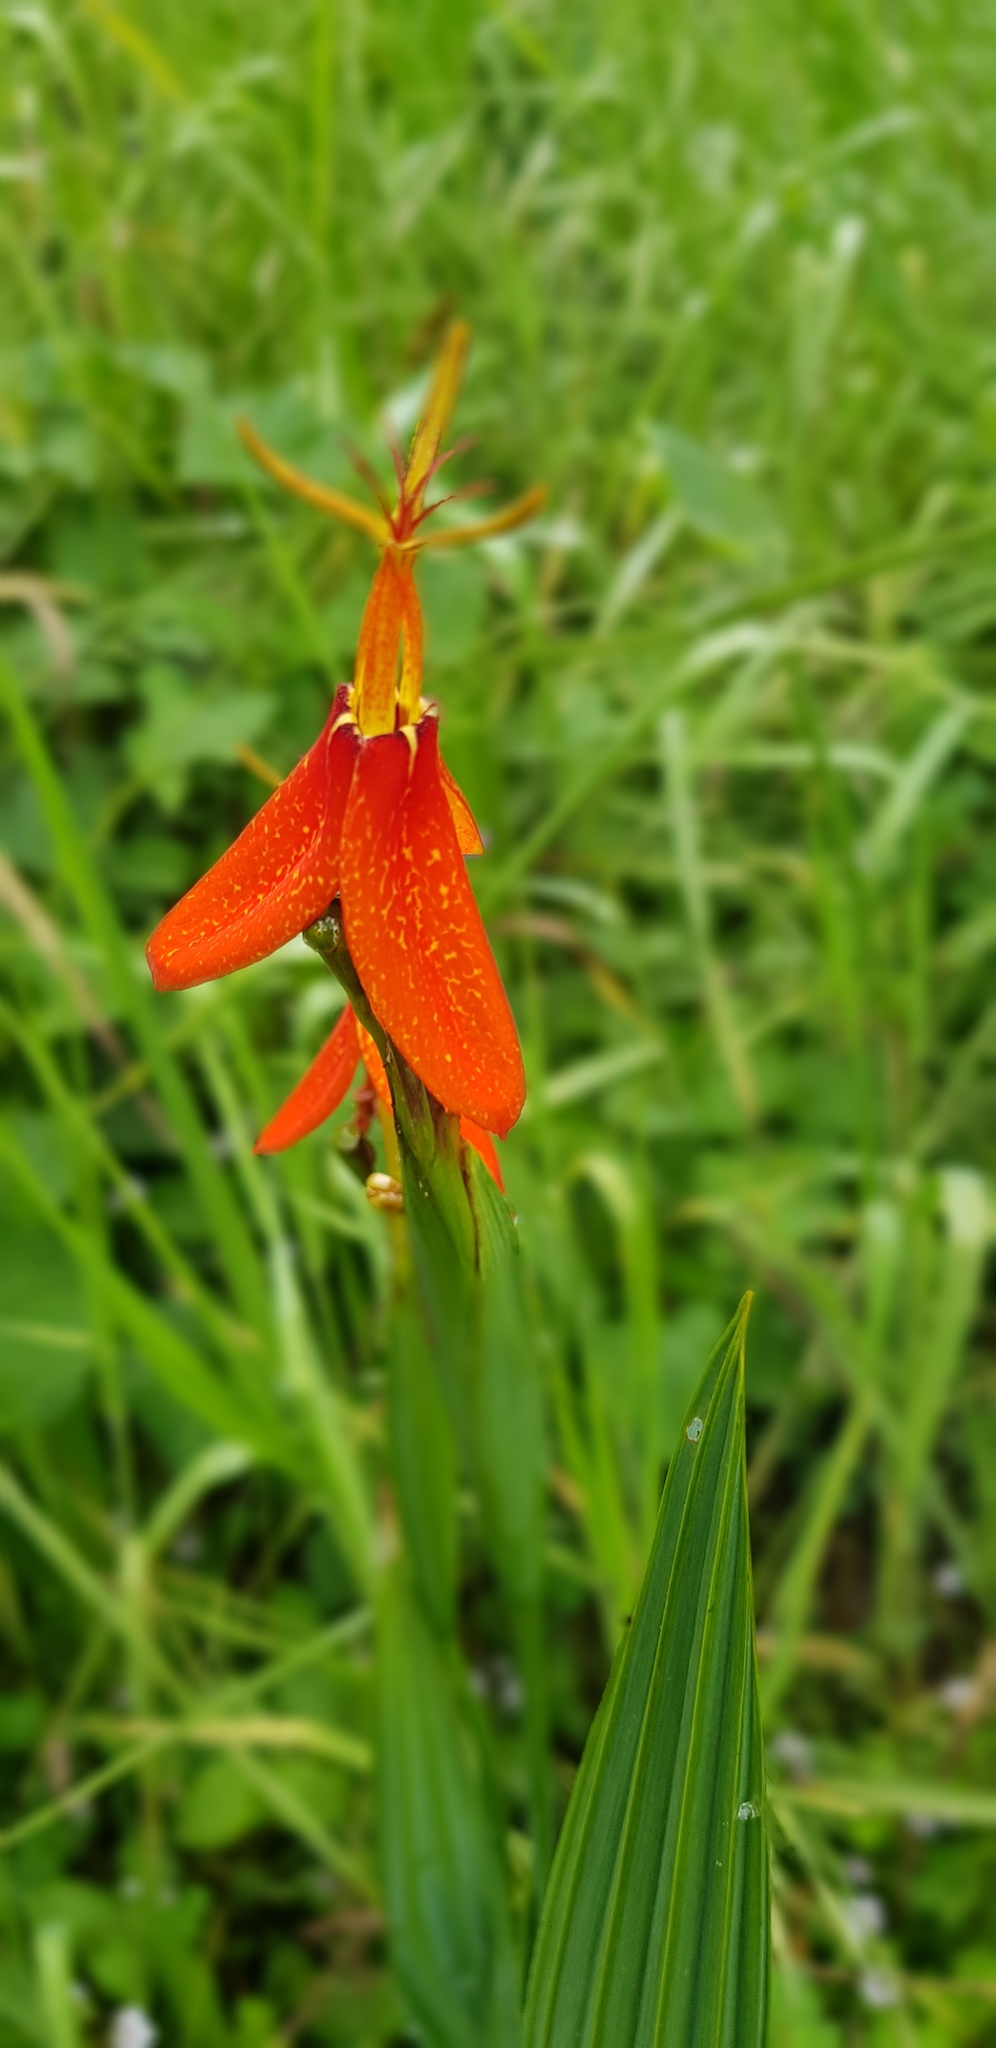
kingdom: Plantae
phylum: Tracheophyta
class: Liliopsida
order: Asparagales
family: Iridaceae
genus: Tigridia
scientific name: Tigridia orthantha
